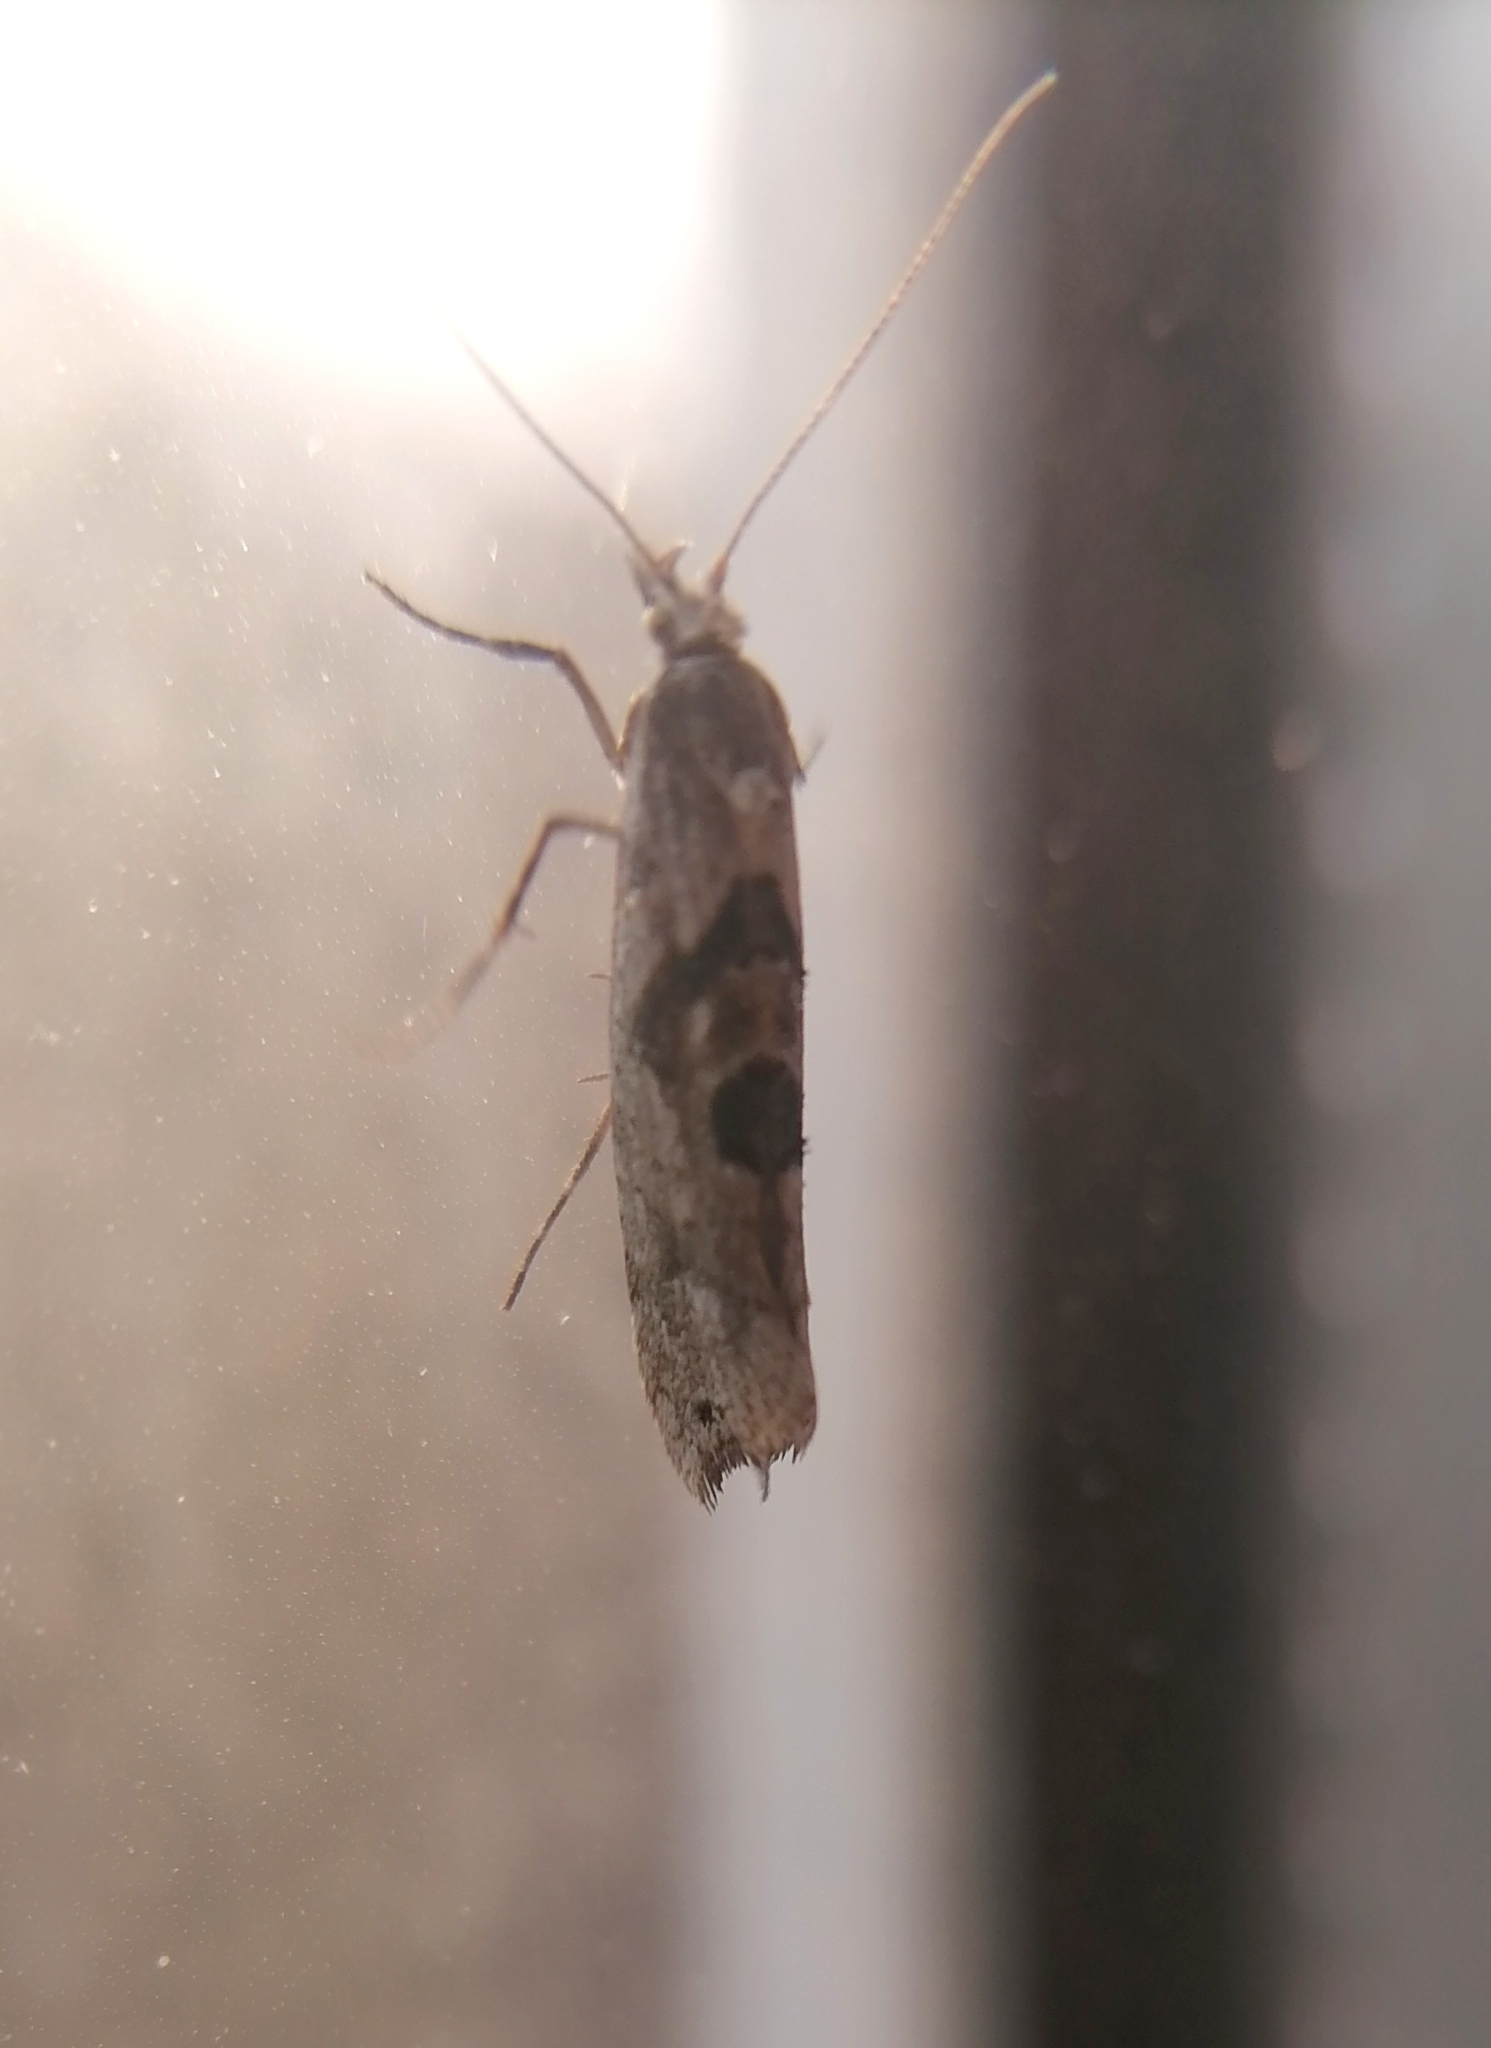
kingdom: Animalia
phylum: Arthropoda
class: Insecta
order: Lepidoptera
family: Plutellidae
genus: Ypsolophus
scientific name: Ypsolophus asperella
